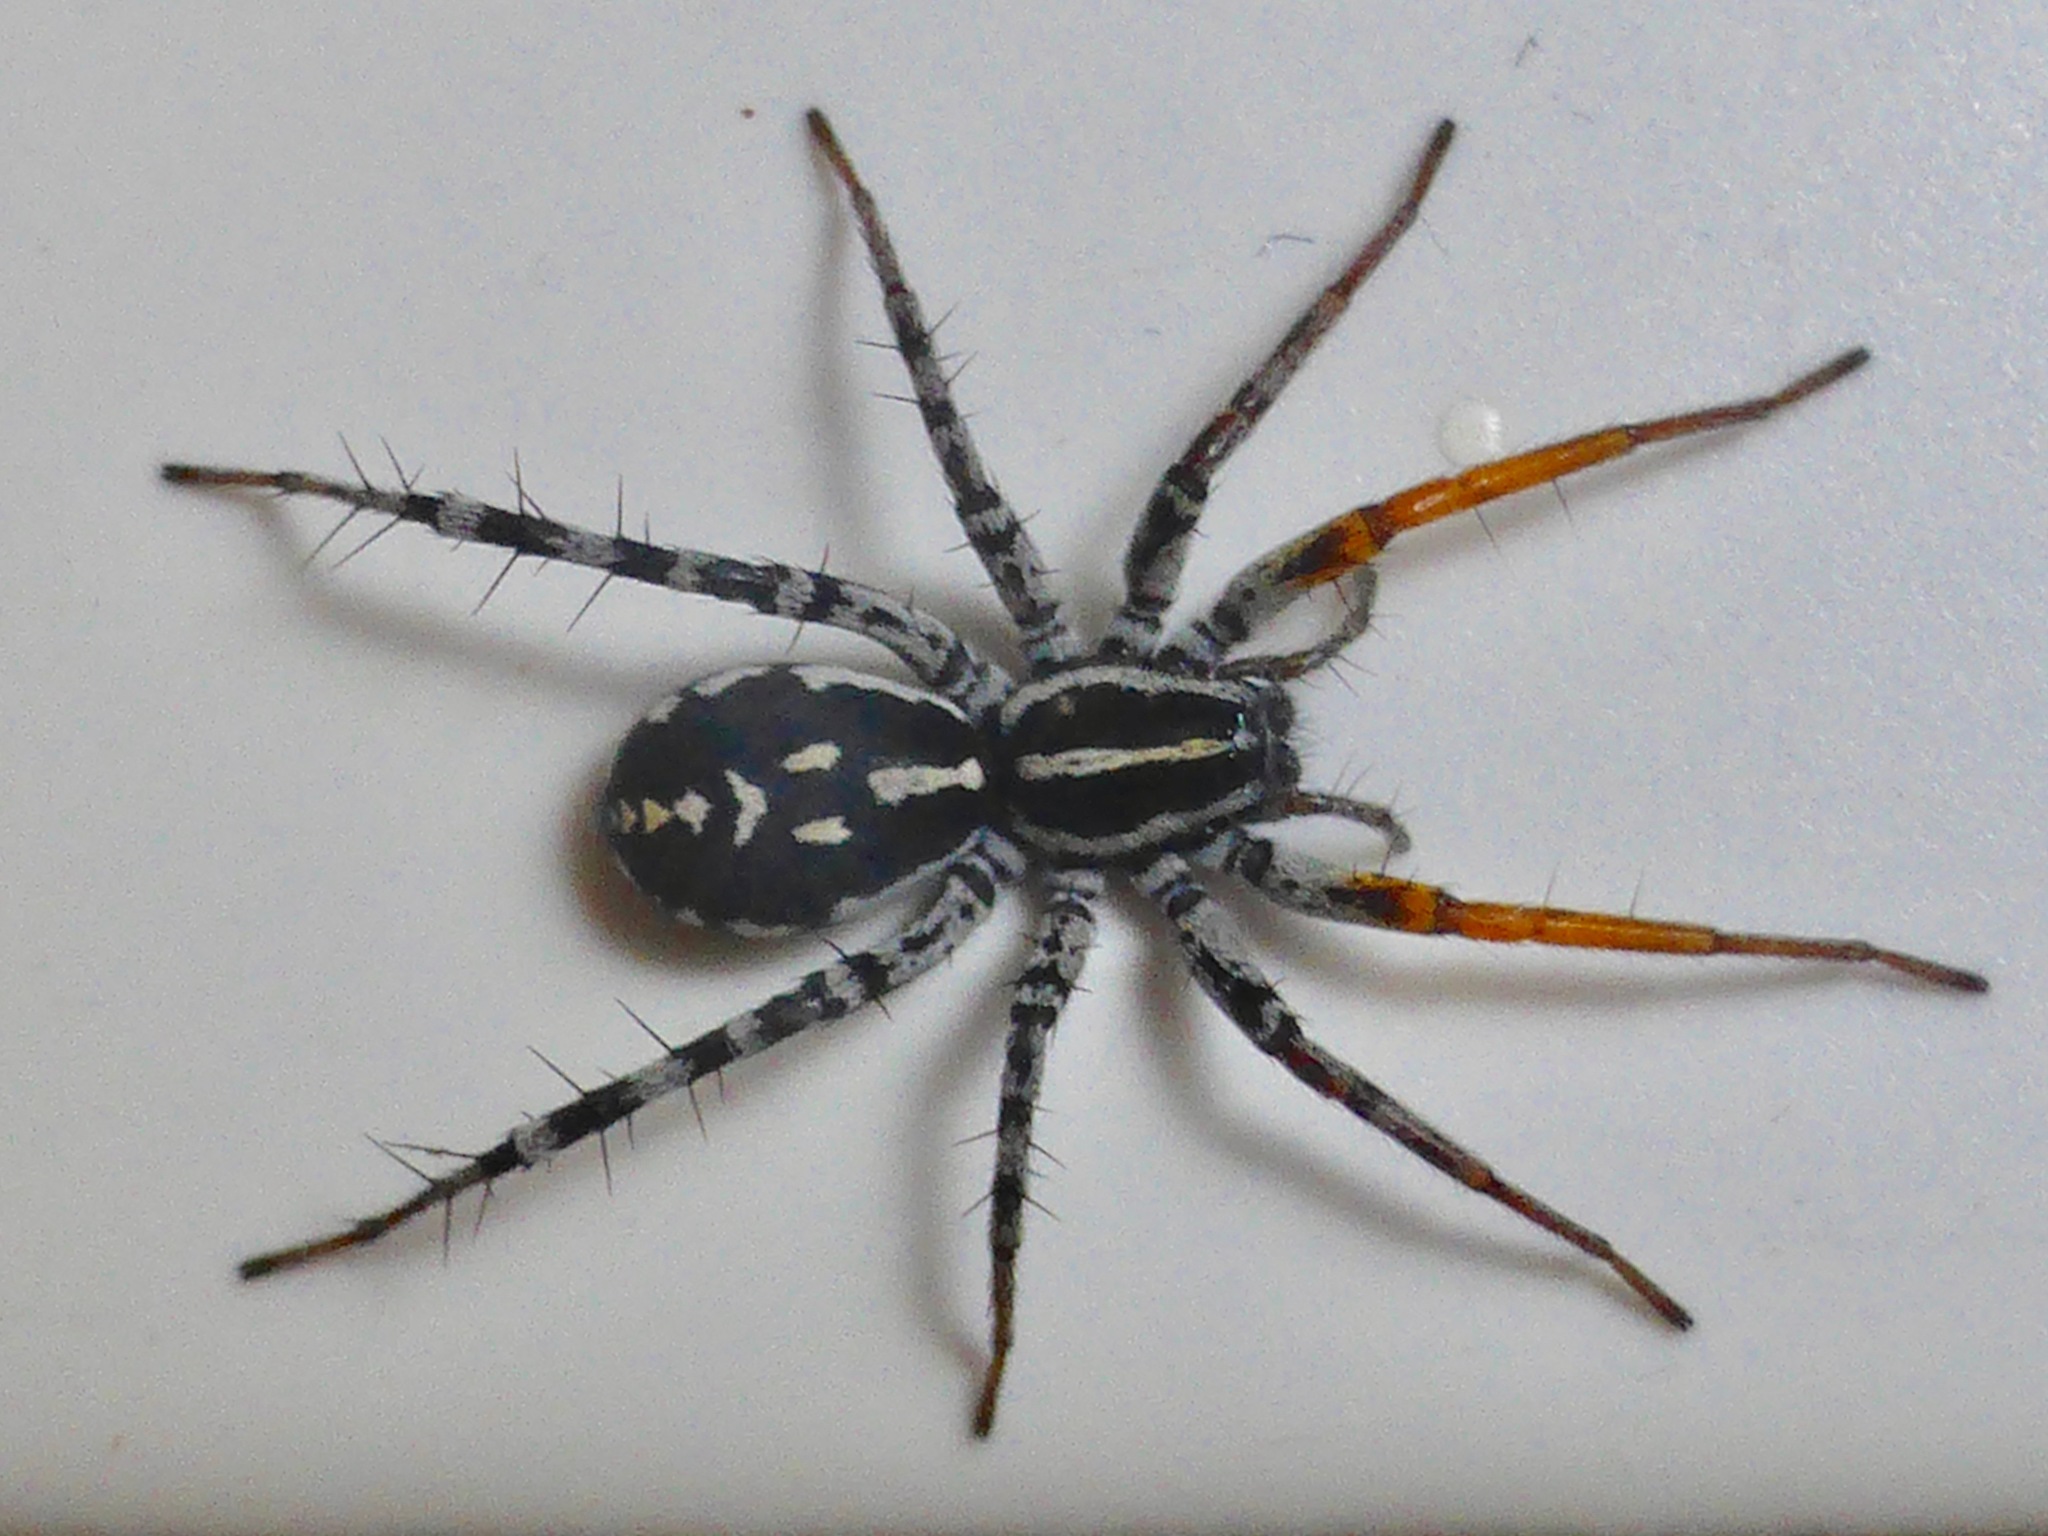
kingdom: Animalia
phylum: Arthropoda
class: Arachnida
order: Araneae
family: Corinnidae
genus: Nyssus
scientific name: Nyssus coloripes
